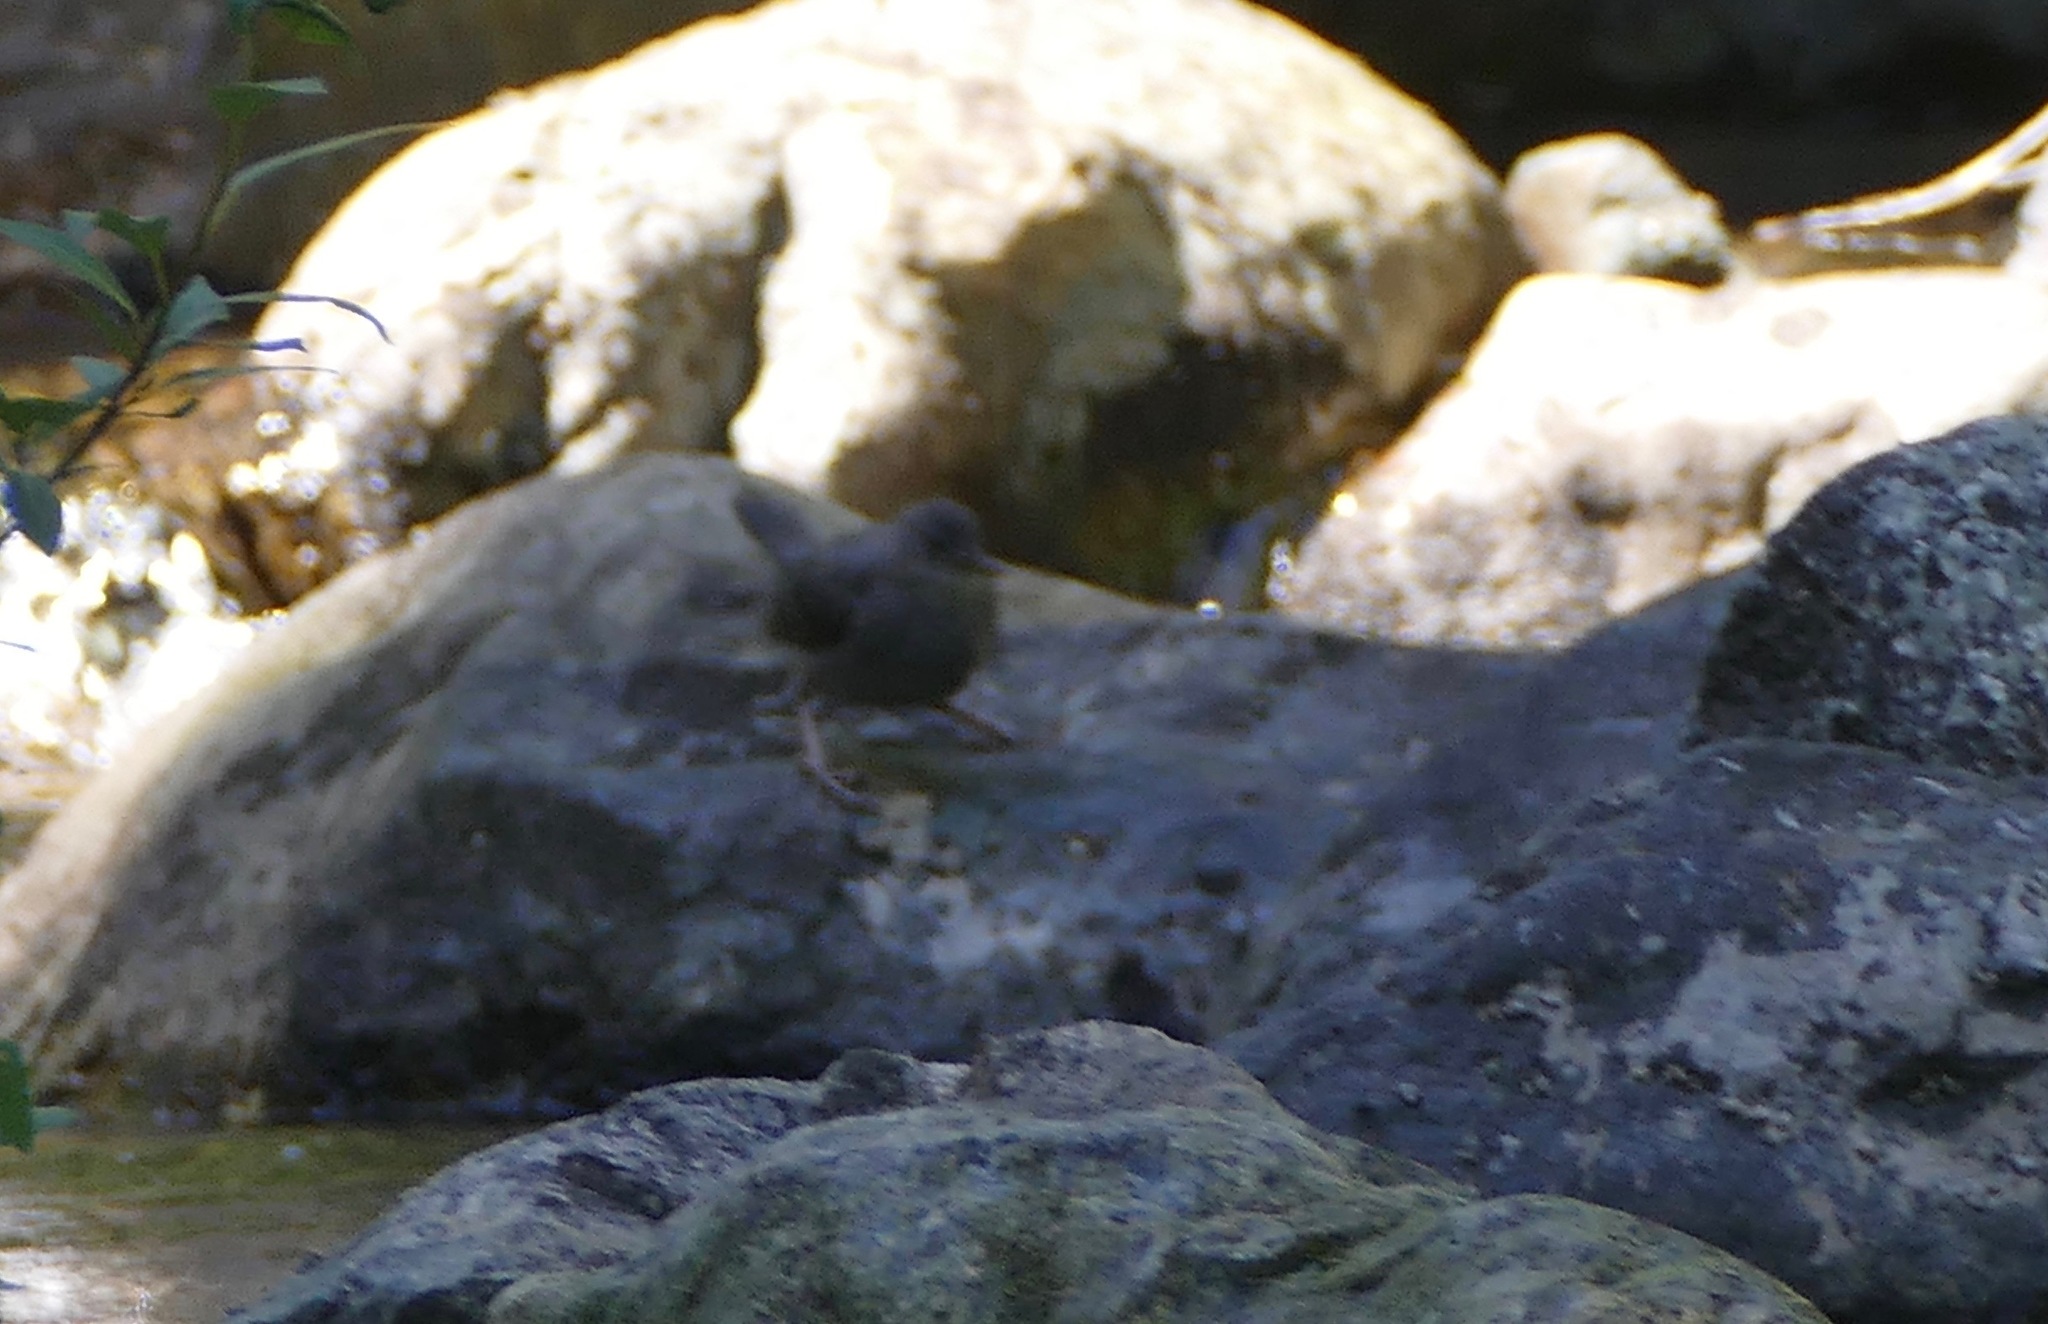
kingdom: Animalia
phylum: Chordata
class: Aves
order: Passeriformes
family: Cinclidae
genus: Cinclus
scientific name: Cinclus mexicanus
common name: American dipper
